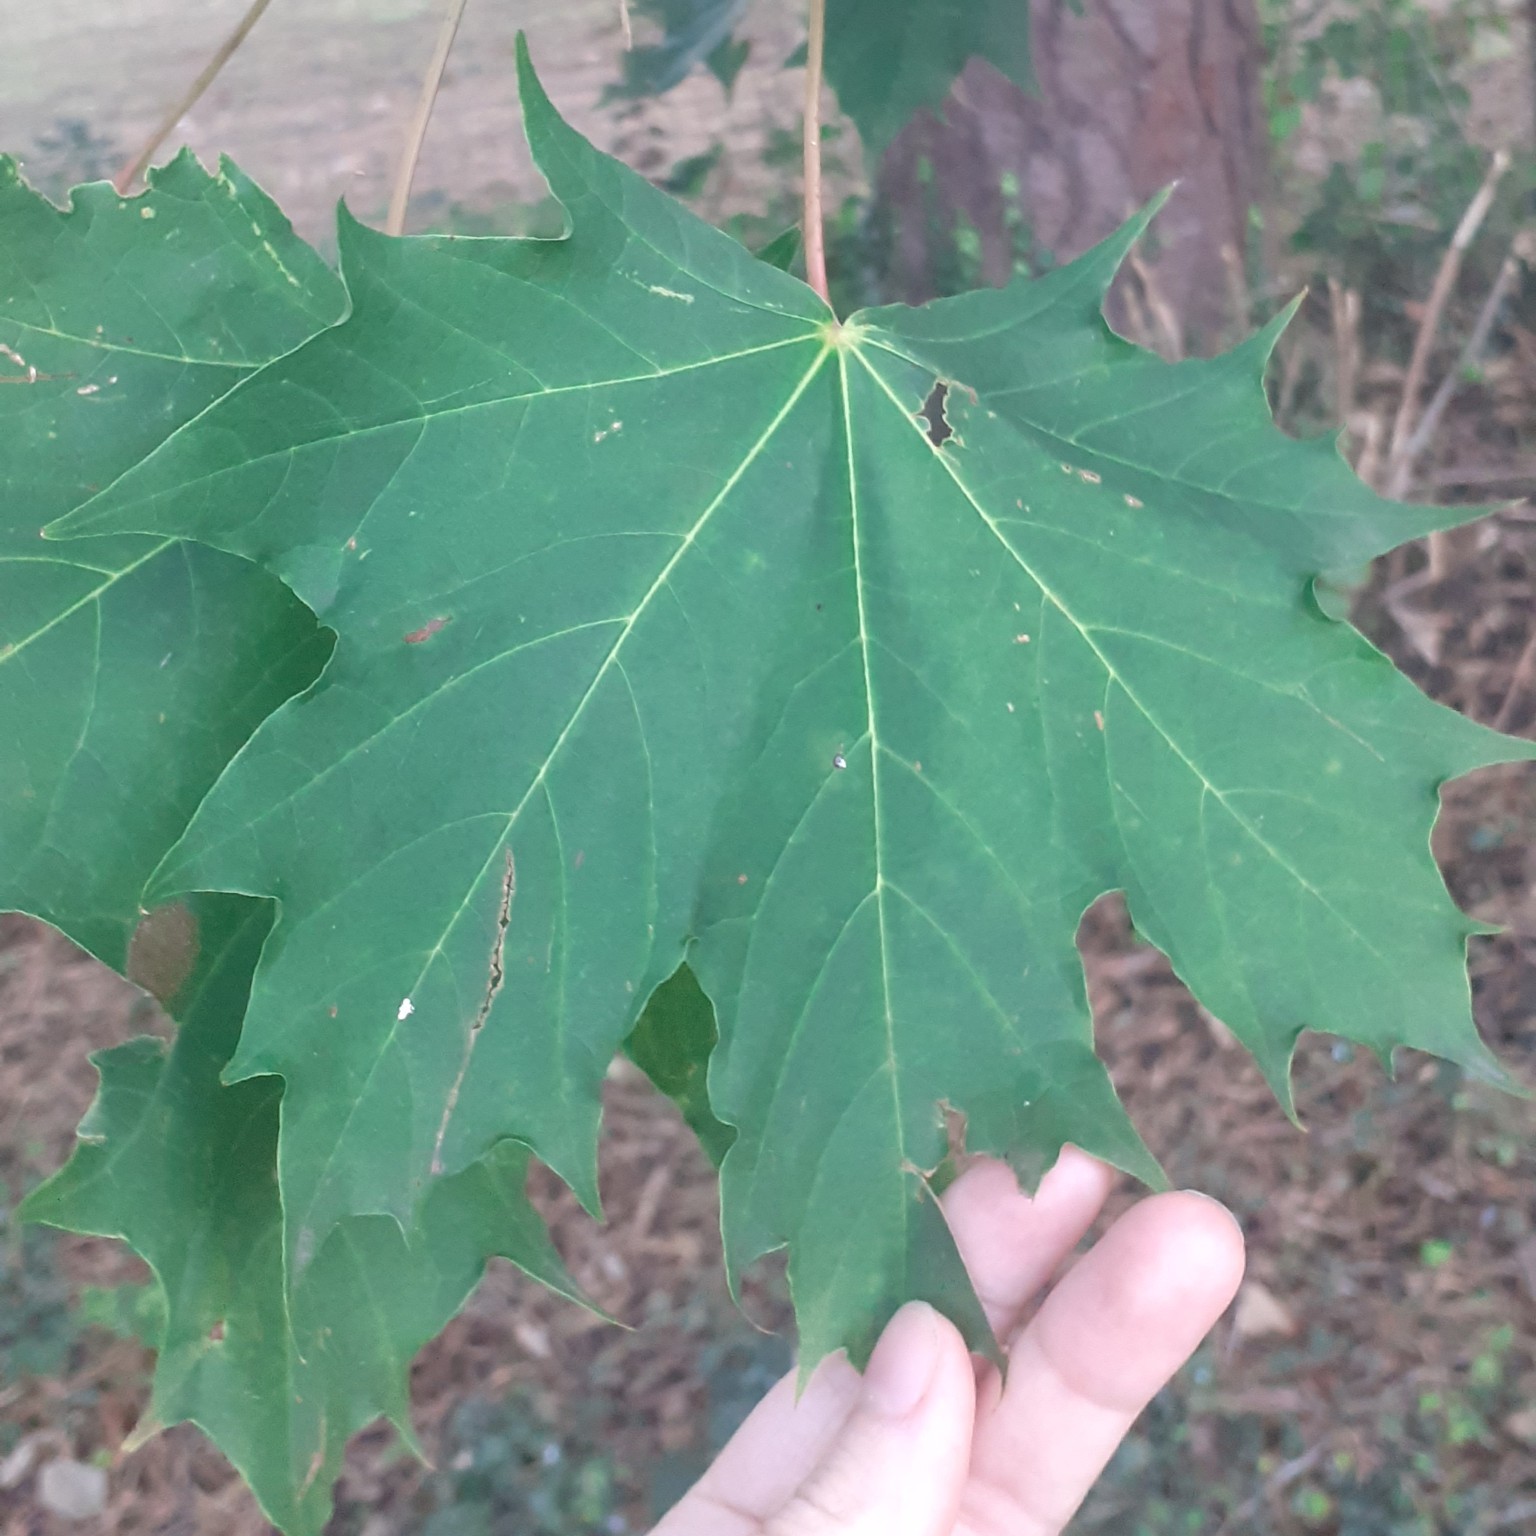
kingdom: Plantae
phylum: Tracheophyta
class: Magnoliopsida
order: Sapindales
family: Sapindaceae
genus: Acer
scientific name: Acer platanoides
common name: Norway maple
